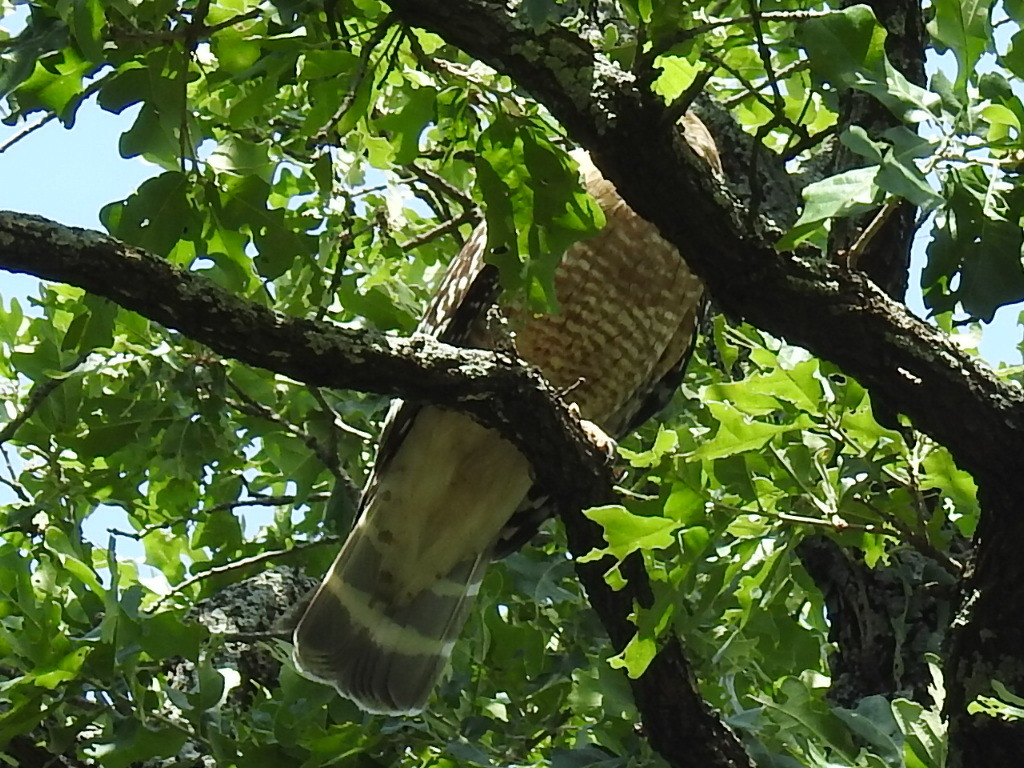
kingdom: Animalia
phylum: Chordata
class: Aves
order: Accipitriformes
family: Accipitridae
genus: Buteo
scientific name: Buteo lineatus
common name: Red-shouldered hawk
